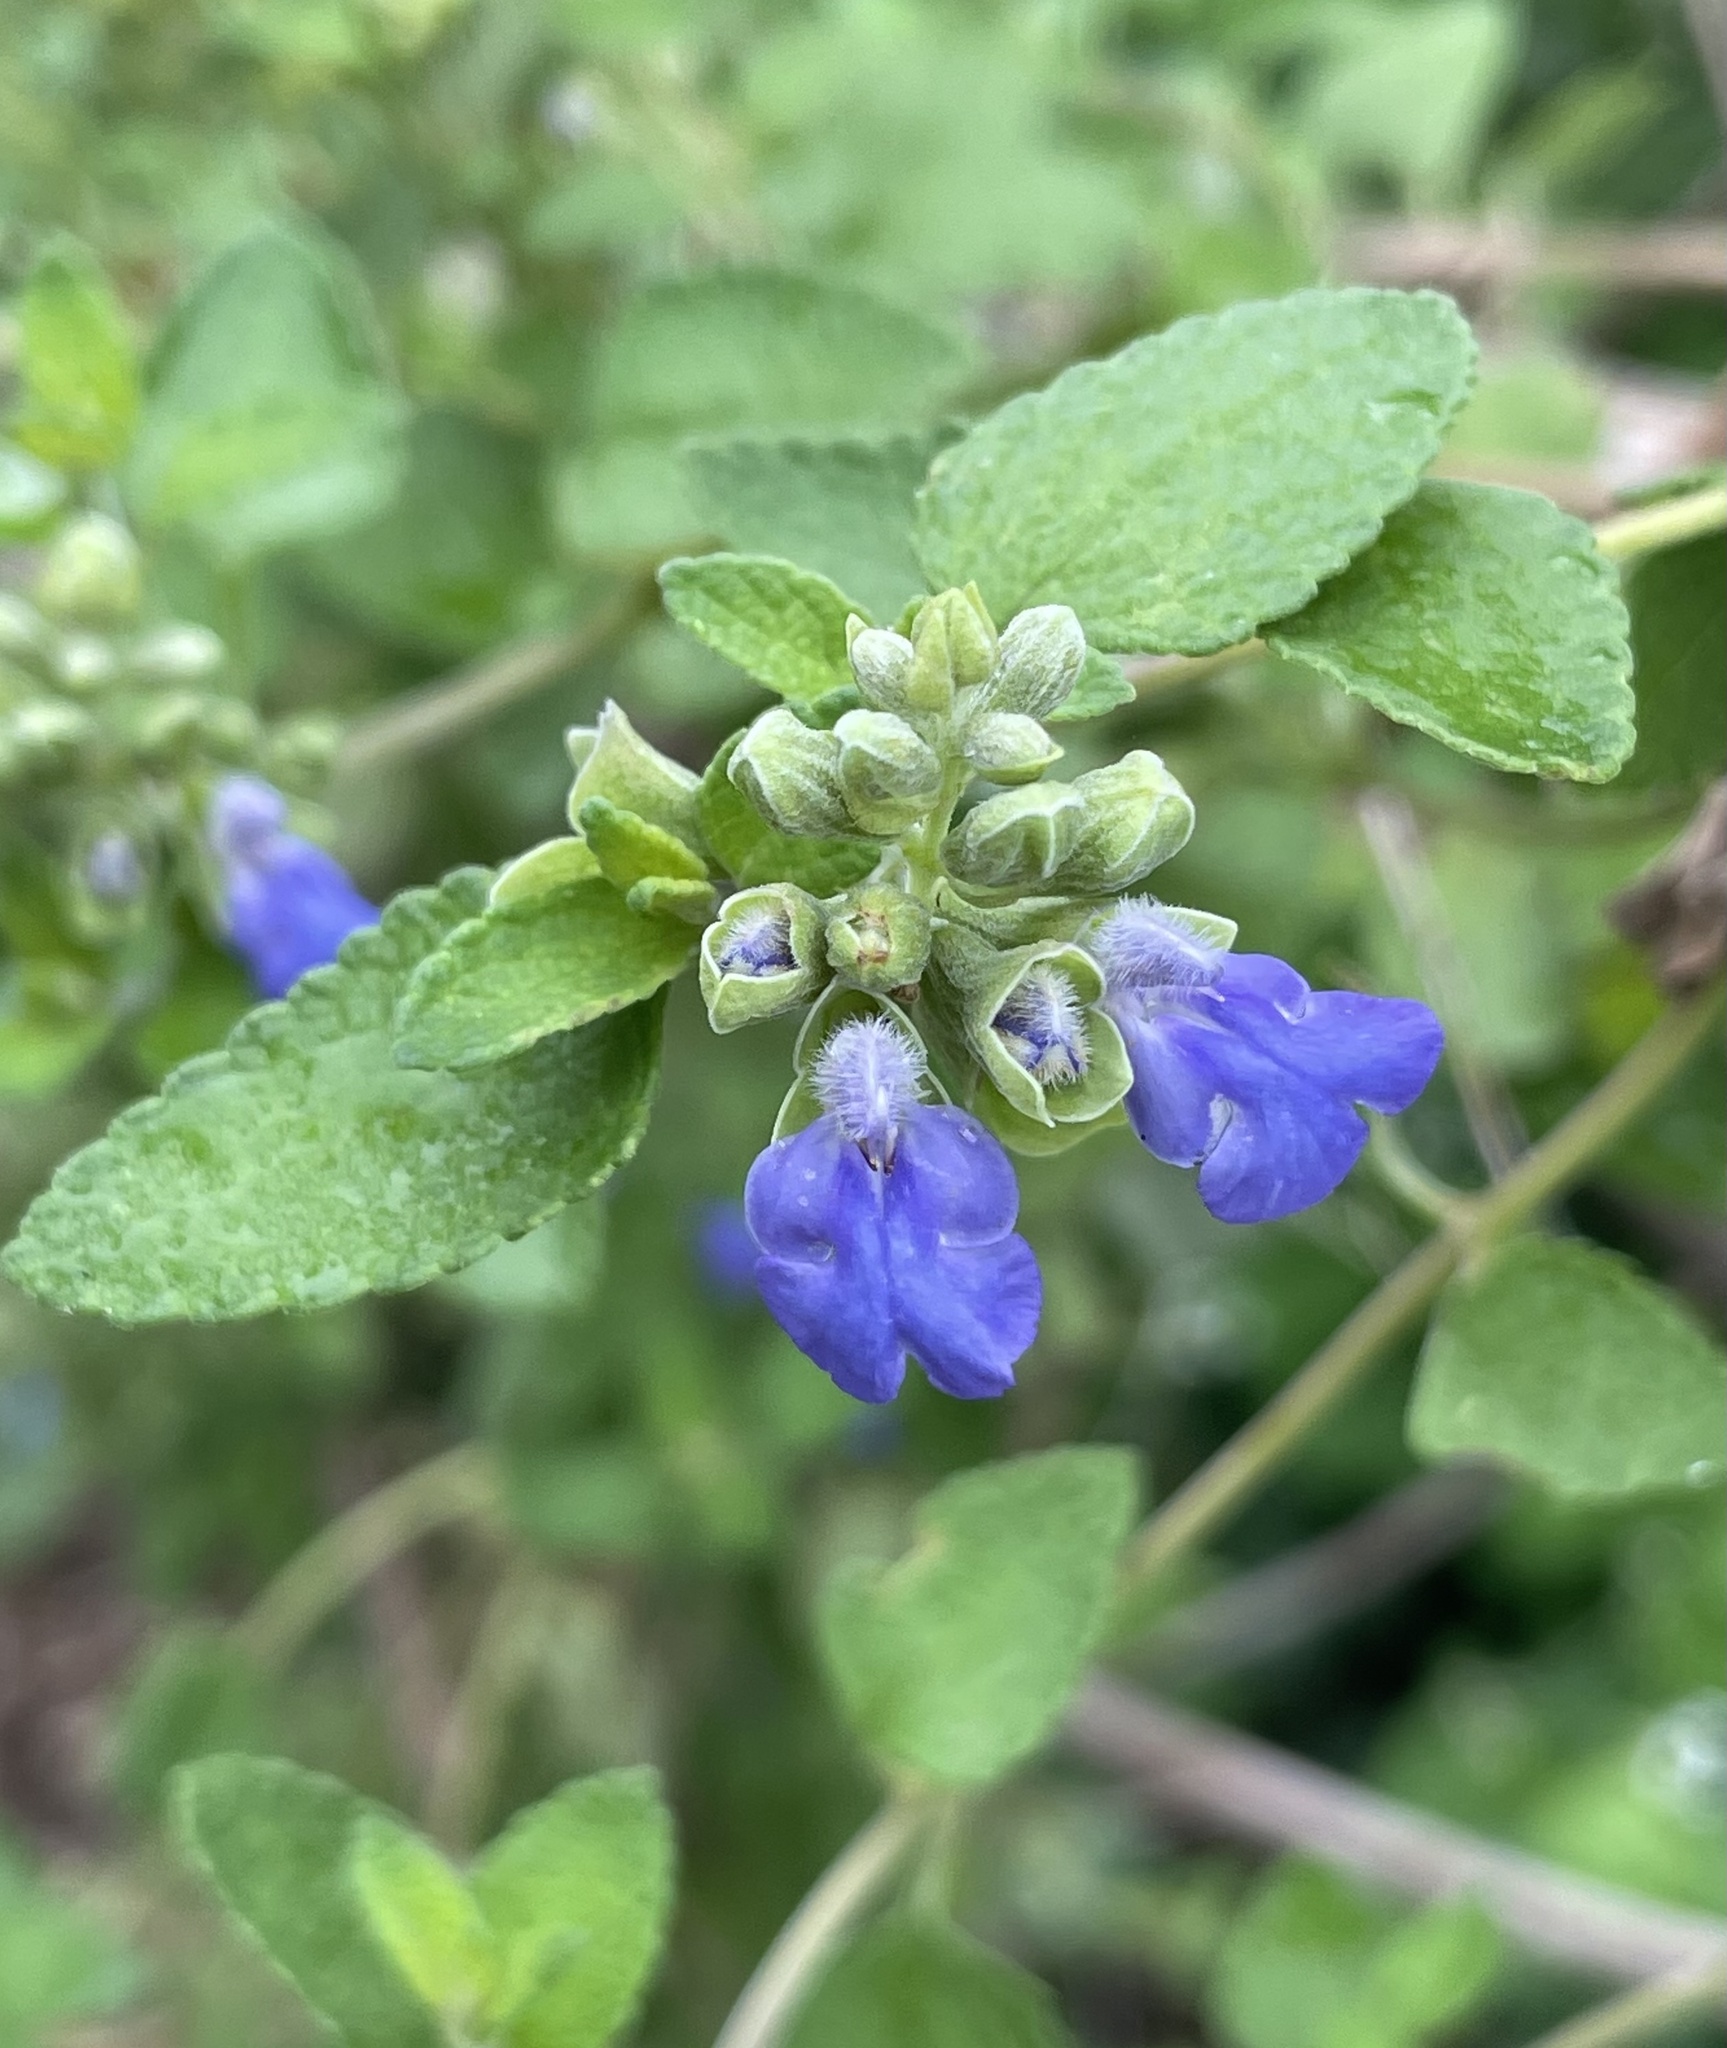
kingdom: Plantae
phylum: Tracheophyta
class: Magnoliopsida
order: Lamiales
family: Lamiaceae
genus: Salvia
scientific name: Salvia ballotiflora
